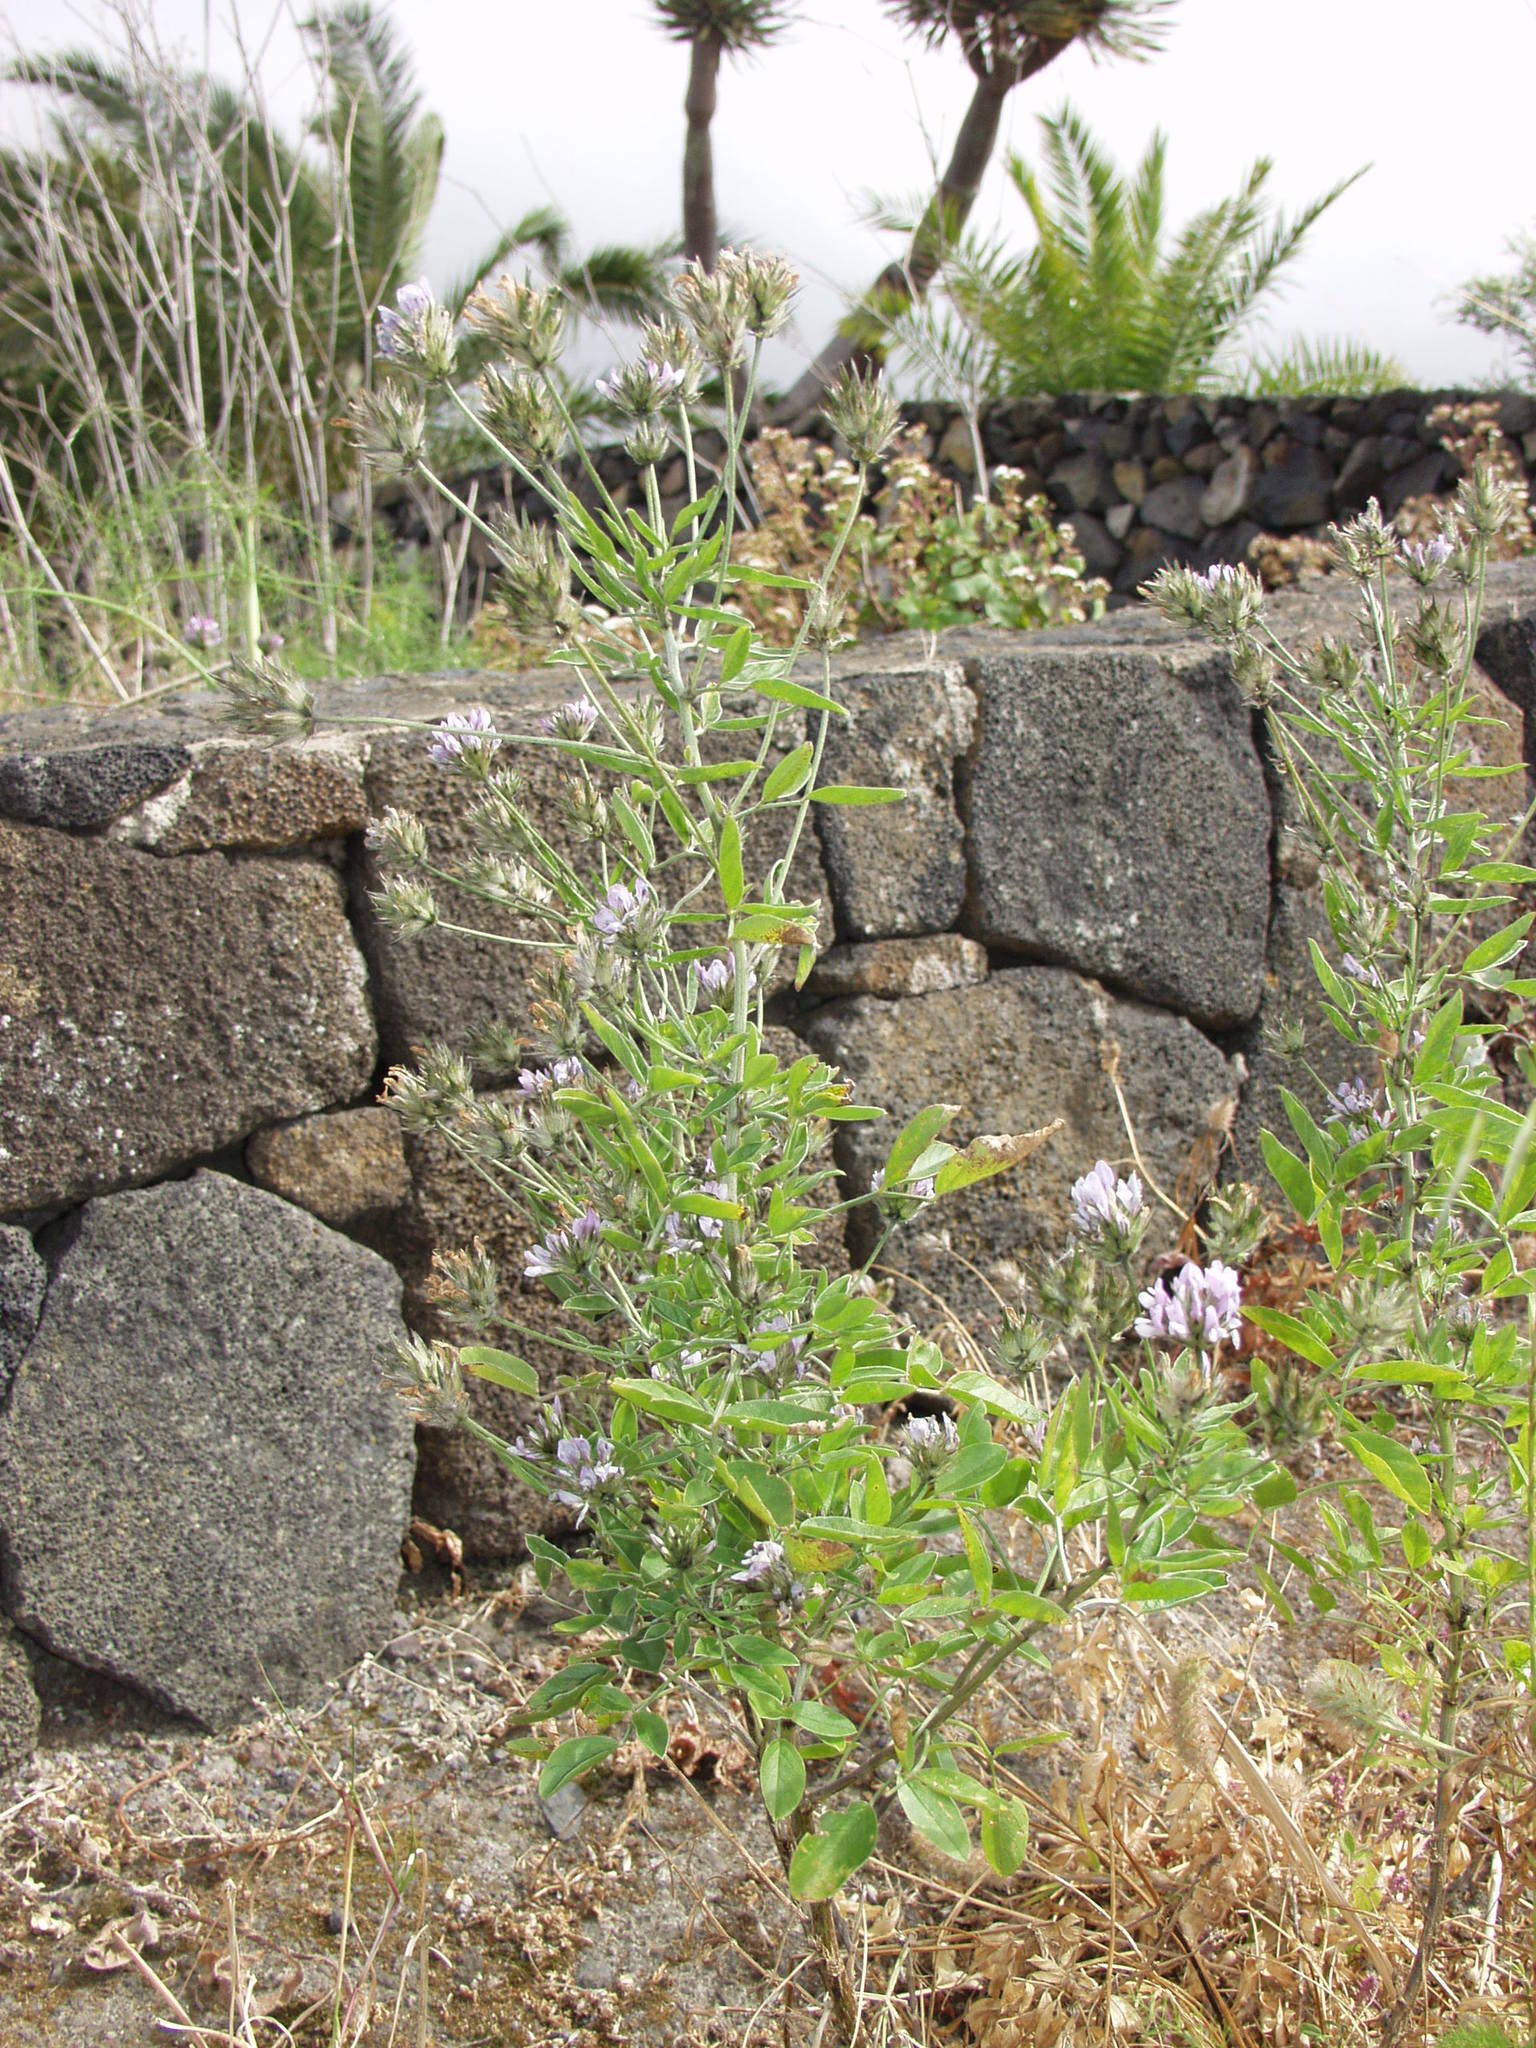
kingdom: Plantae
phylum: Tracheophyta
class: Magnoliopsida
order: Fabales
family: Fabaceae
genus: Bituminaria
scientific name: Bituminaria bituminosa
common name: Arabian pea
